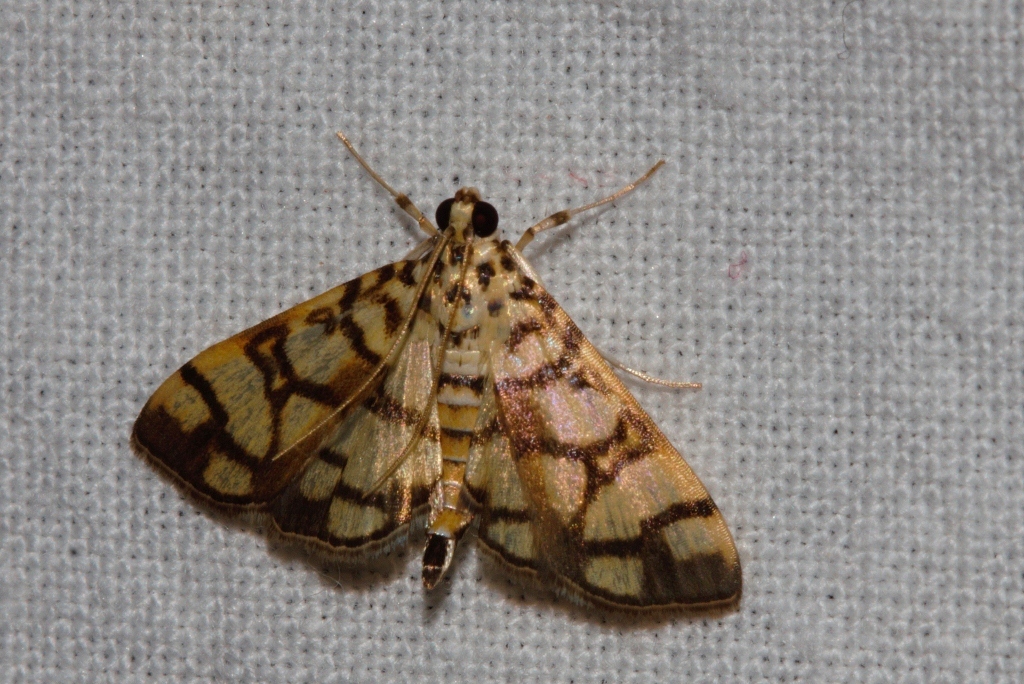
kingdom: Animalia
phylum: Arthropoda
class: Insecta
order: Lepidoptera
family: Crambidae
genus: Pardomima
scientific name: Pardomima callixantha
